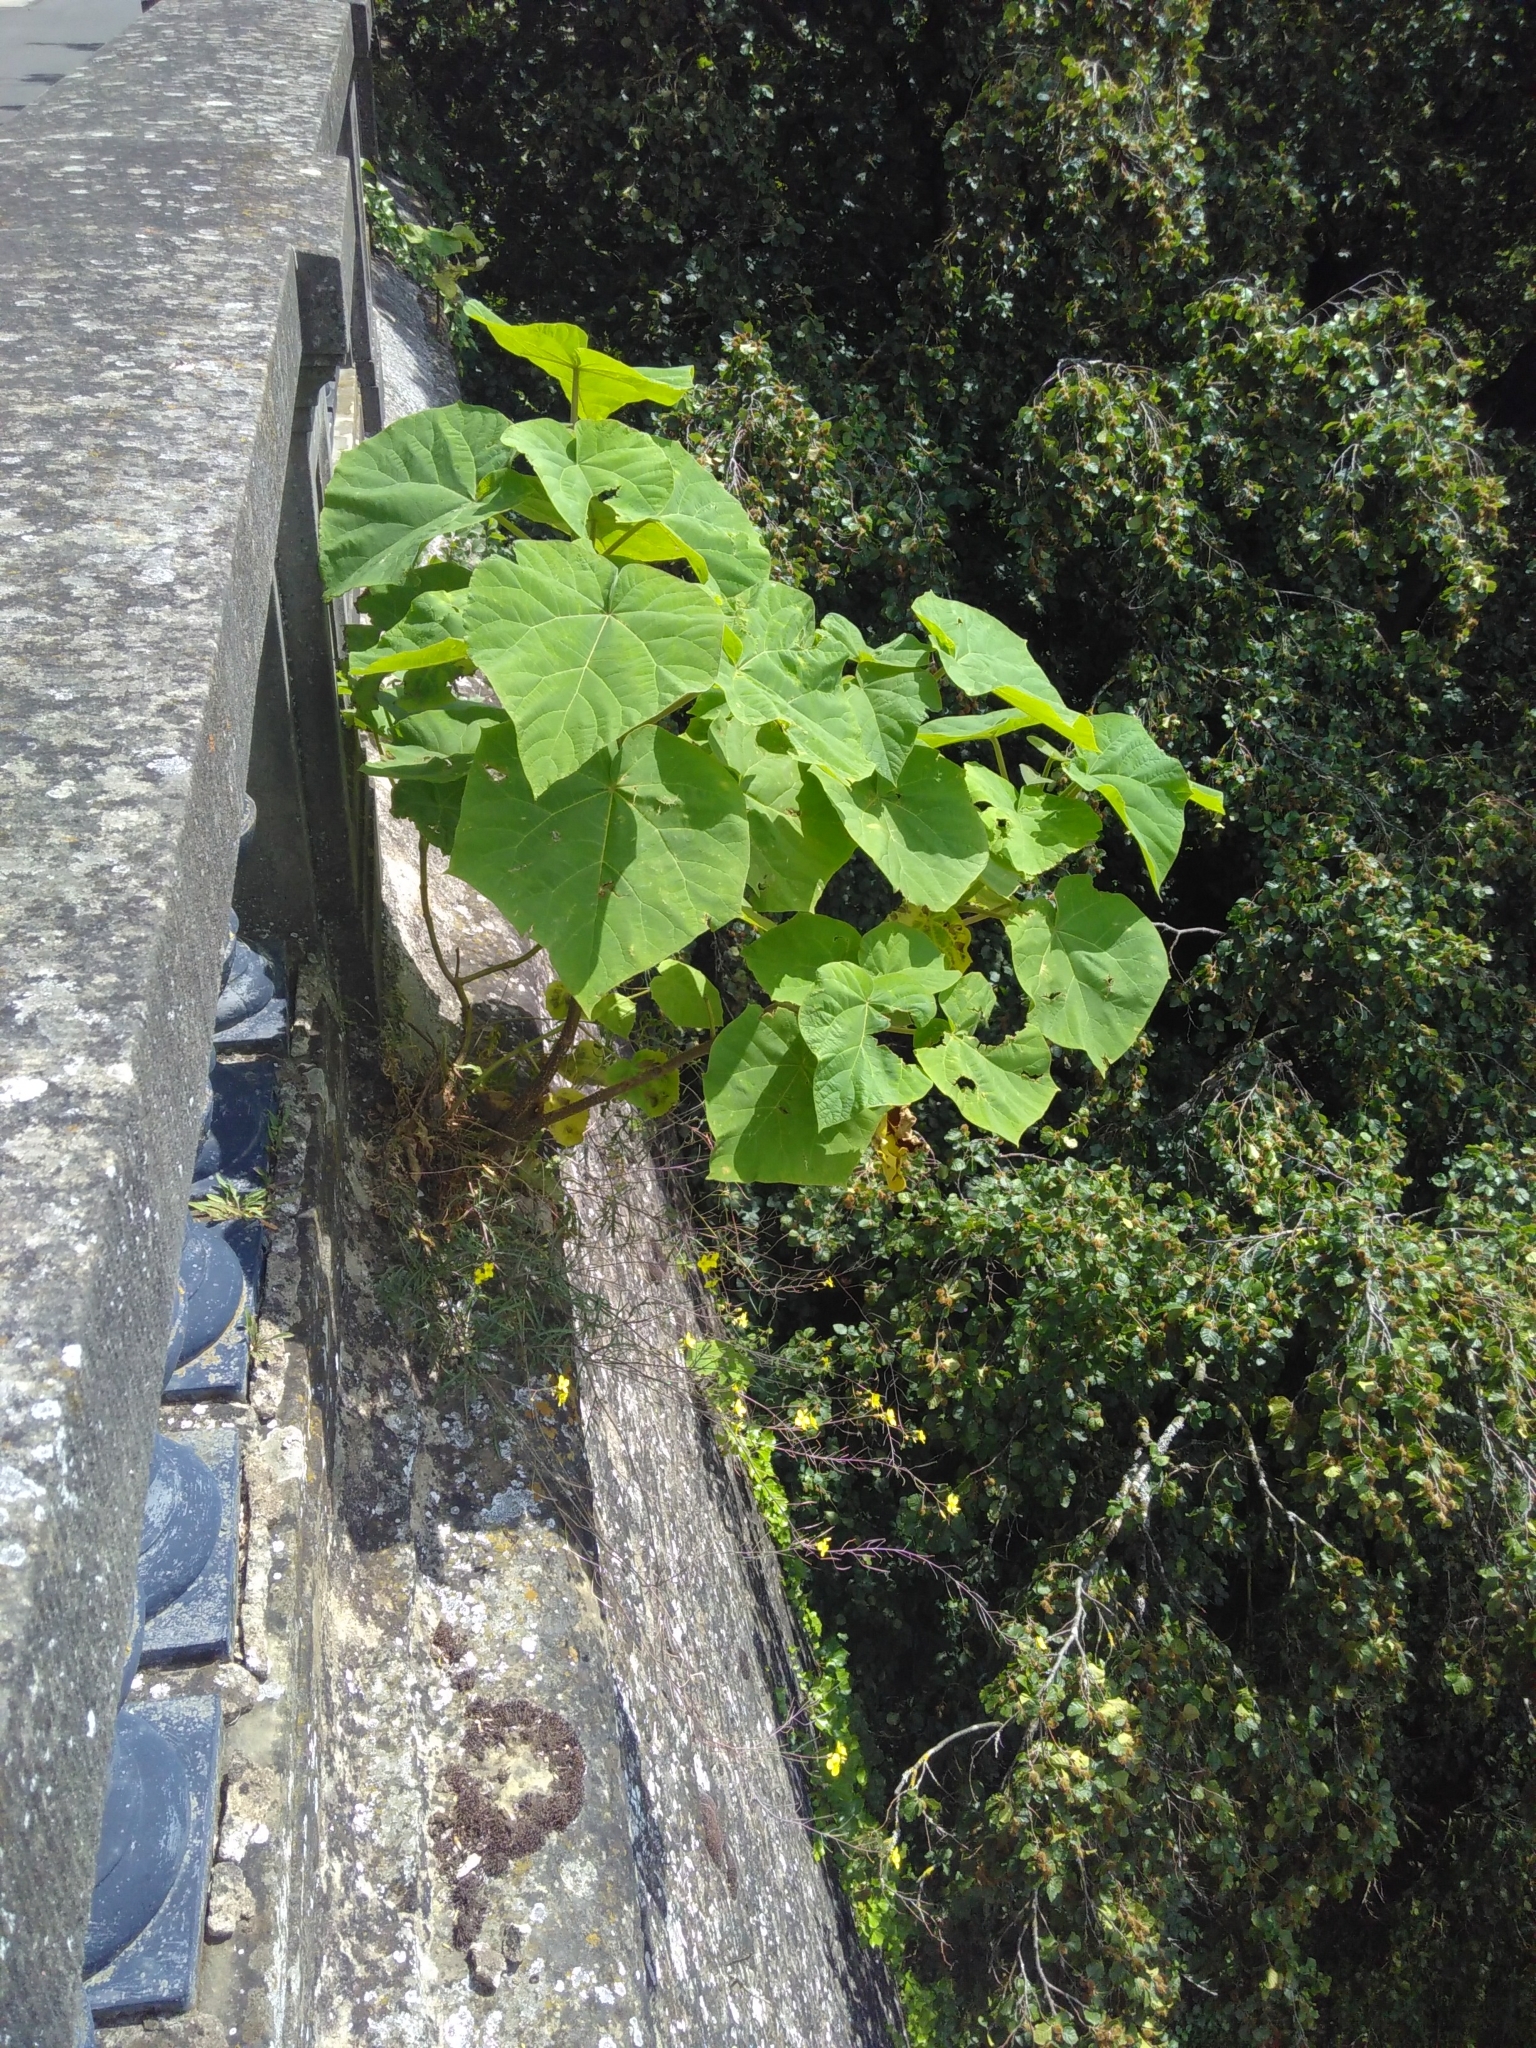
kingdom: Plantae
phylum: Tracheophyta
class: Magnoliopsida
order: Lamiales
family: Paulowniaceae
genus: Paulownia
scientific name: Paulownia tomentosa
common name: Foxglove-tree
